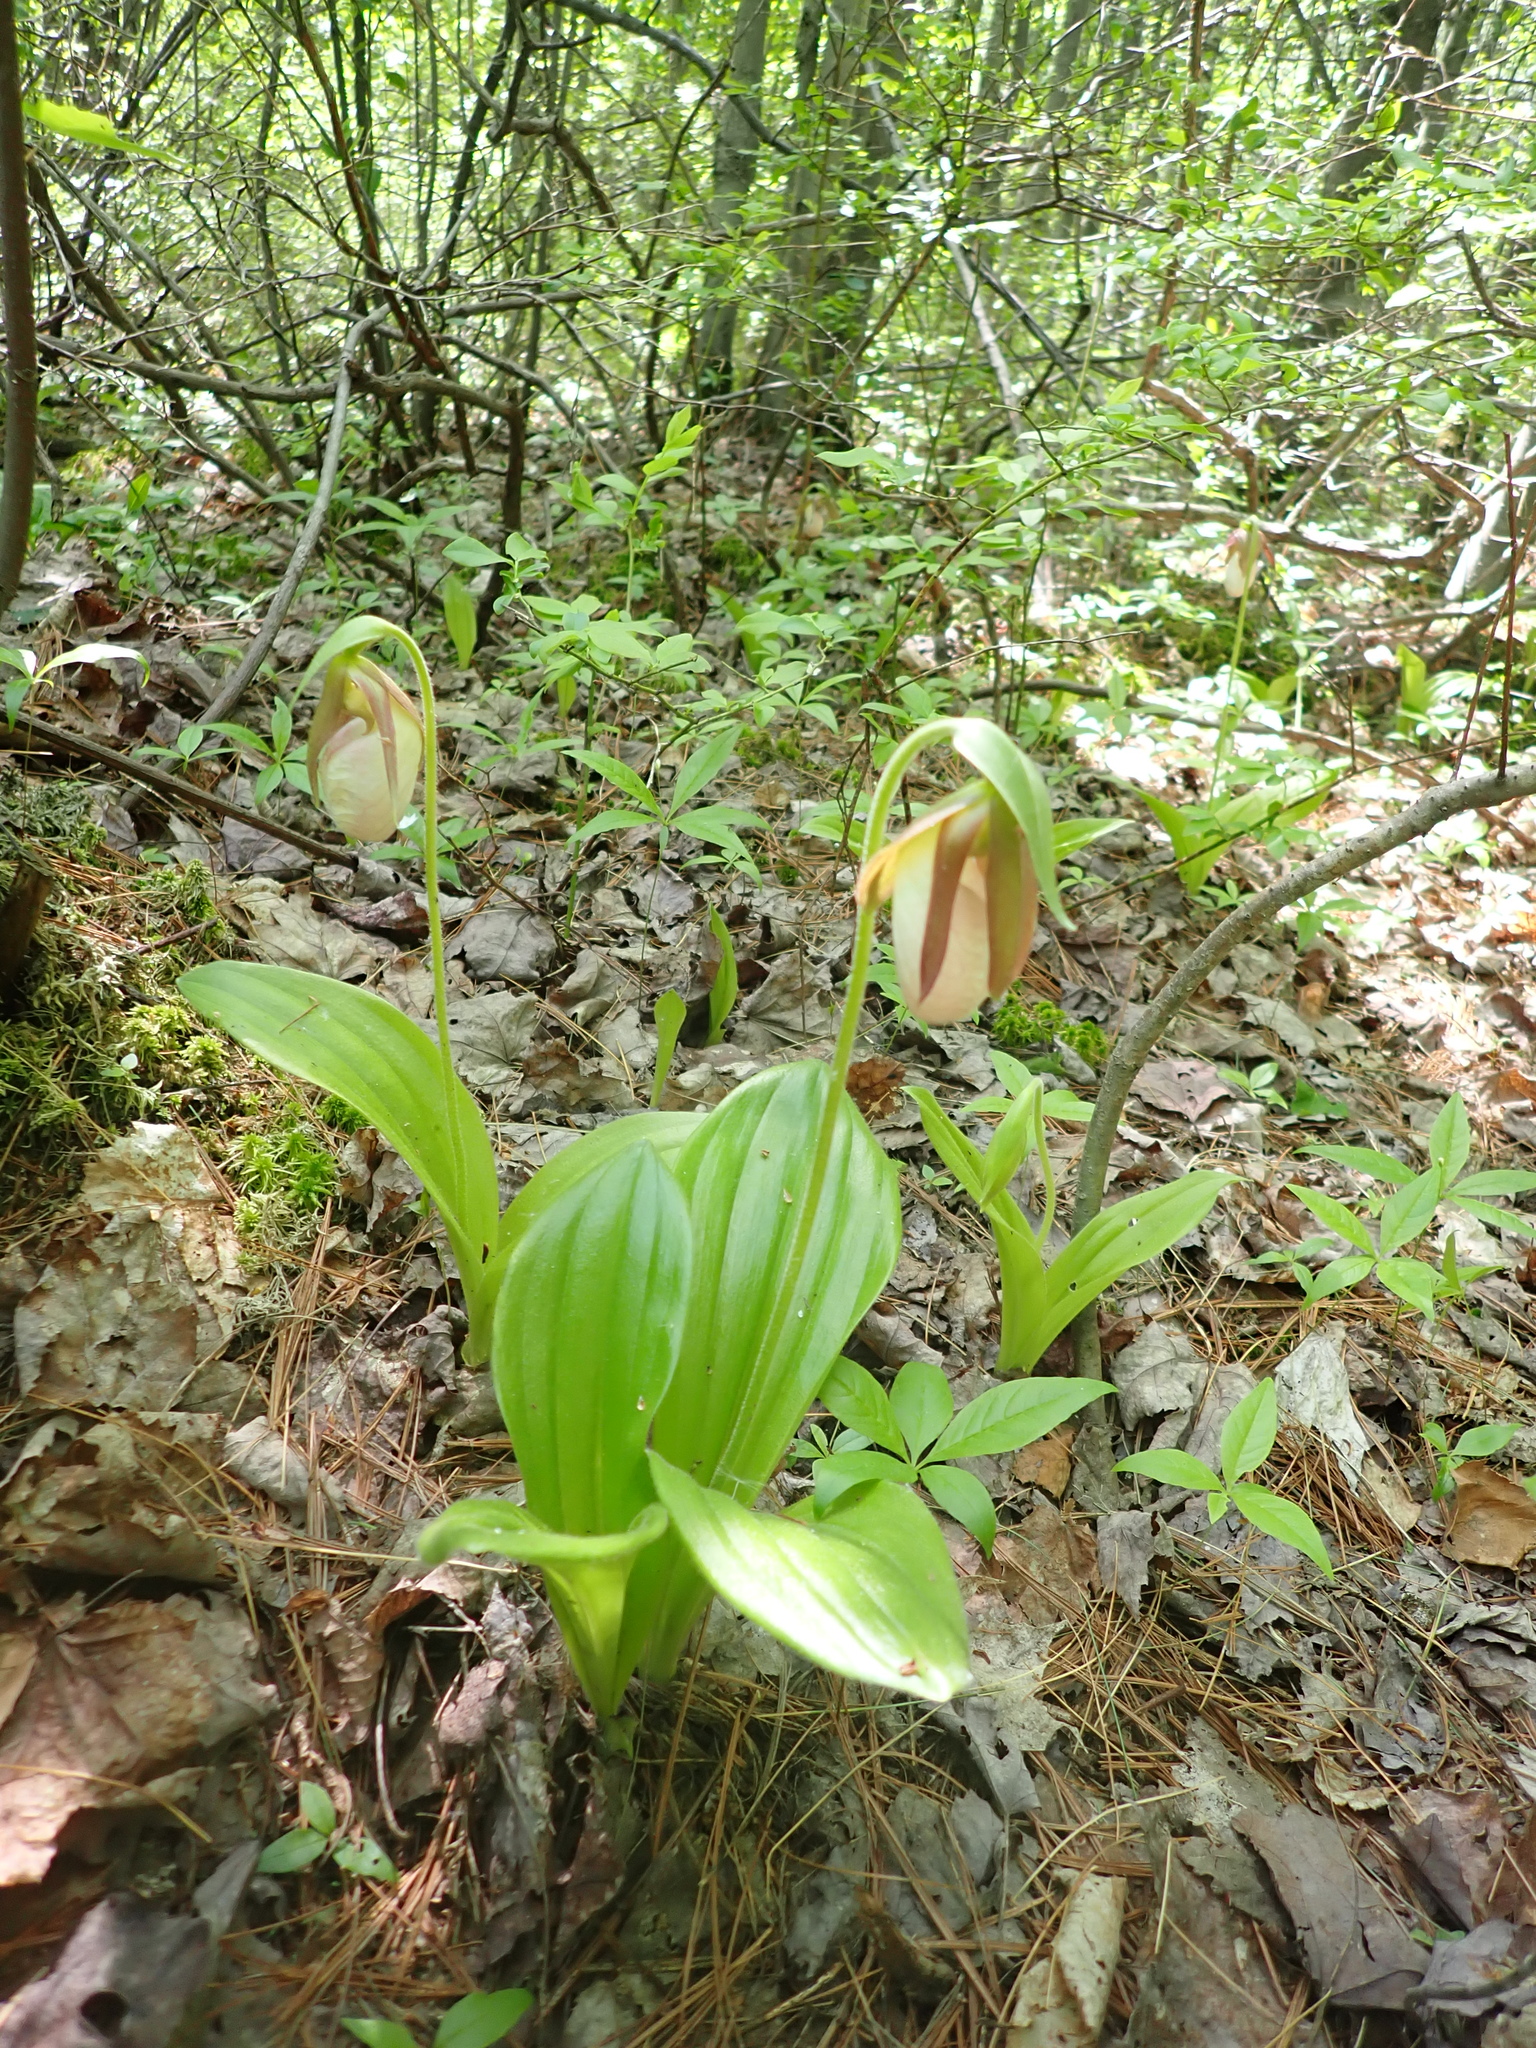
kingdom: Plantae
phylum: Tracheophyta
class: Liliopsida
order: Asparagales
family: Orchidaceae
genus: Cypripedium
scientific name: Cypripedium acaule
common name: Pink lady's-slipper
